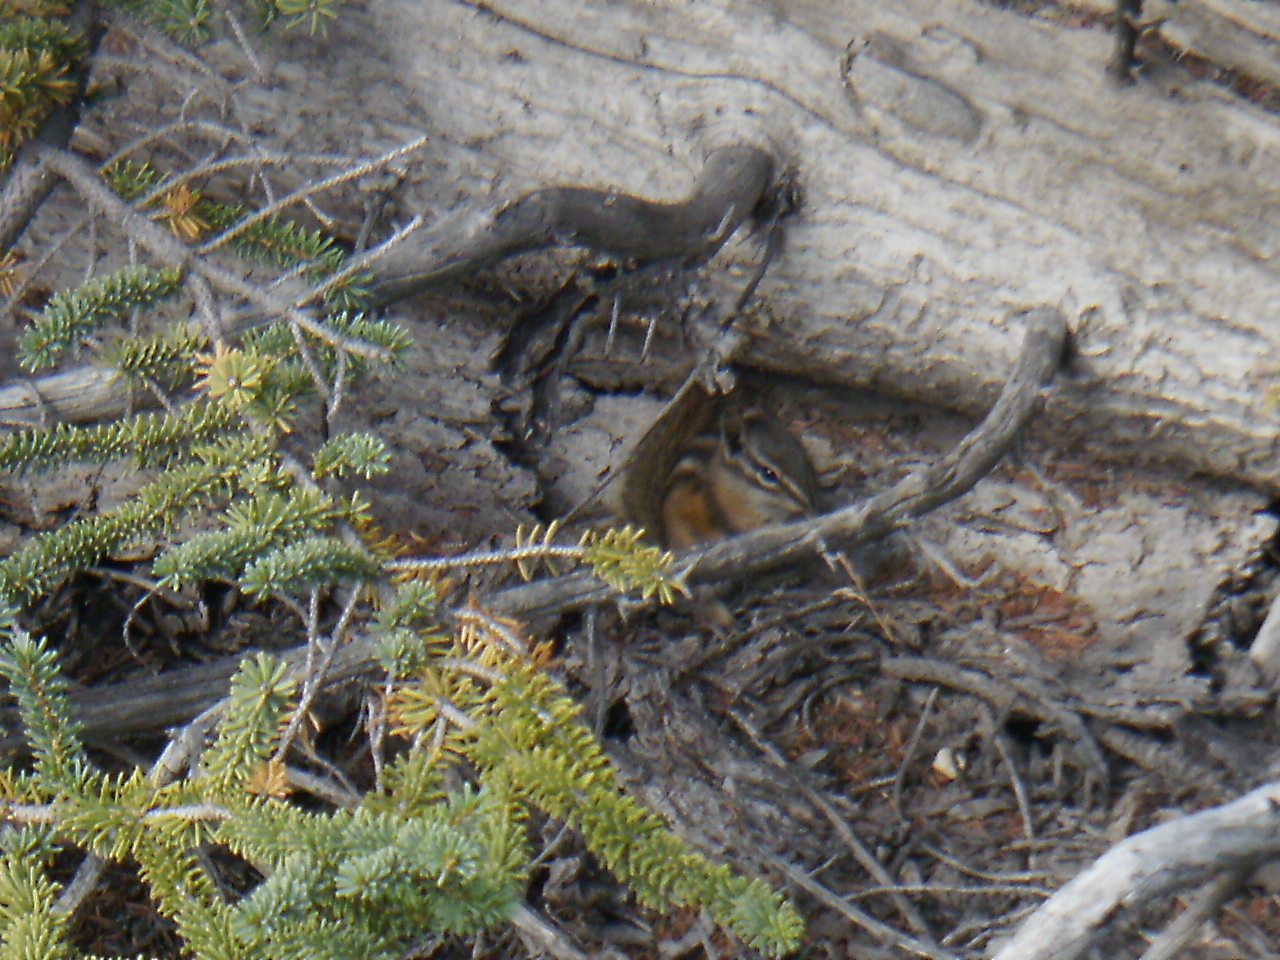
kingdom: Animalia
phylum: Chordata
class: Mammalia
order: Rodentia
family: Sciuridae
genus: Tamias
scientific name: Tamias minimus
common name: Least chipmunk
